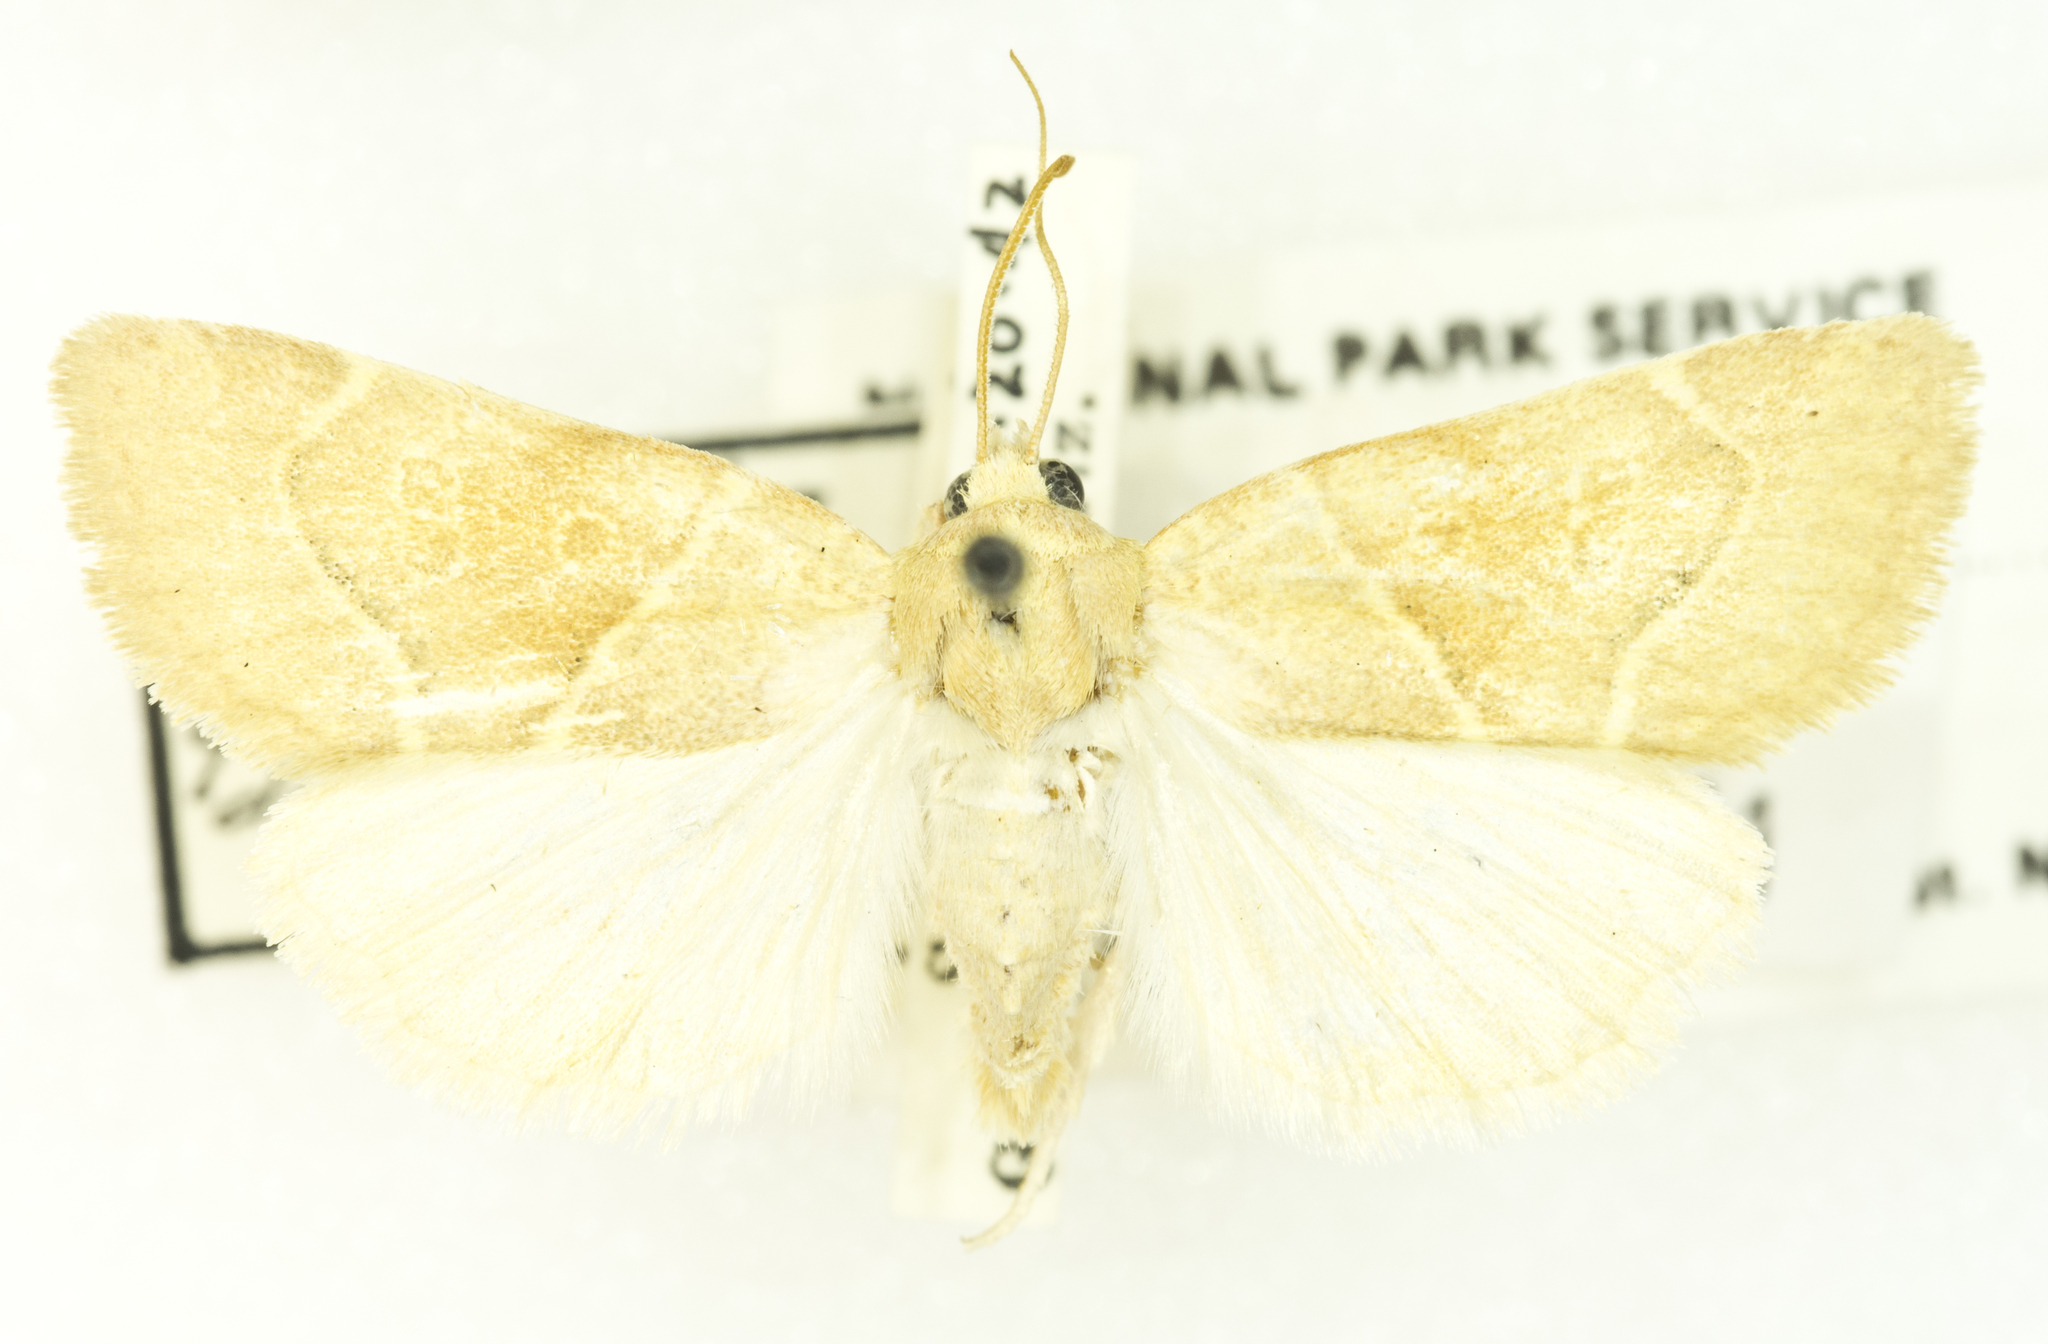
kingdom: Animalia
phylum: Arthropoda
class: Insecta
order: Lepidoptera
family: Noctuidae
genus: Cosmia
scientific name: Cosmia calami
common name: American dun-bar moth
